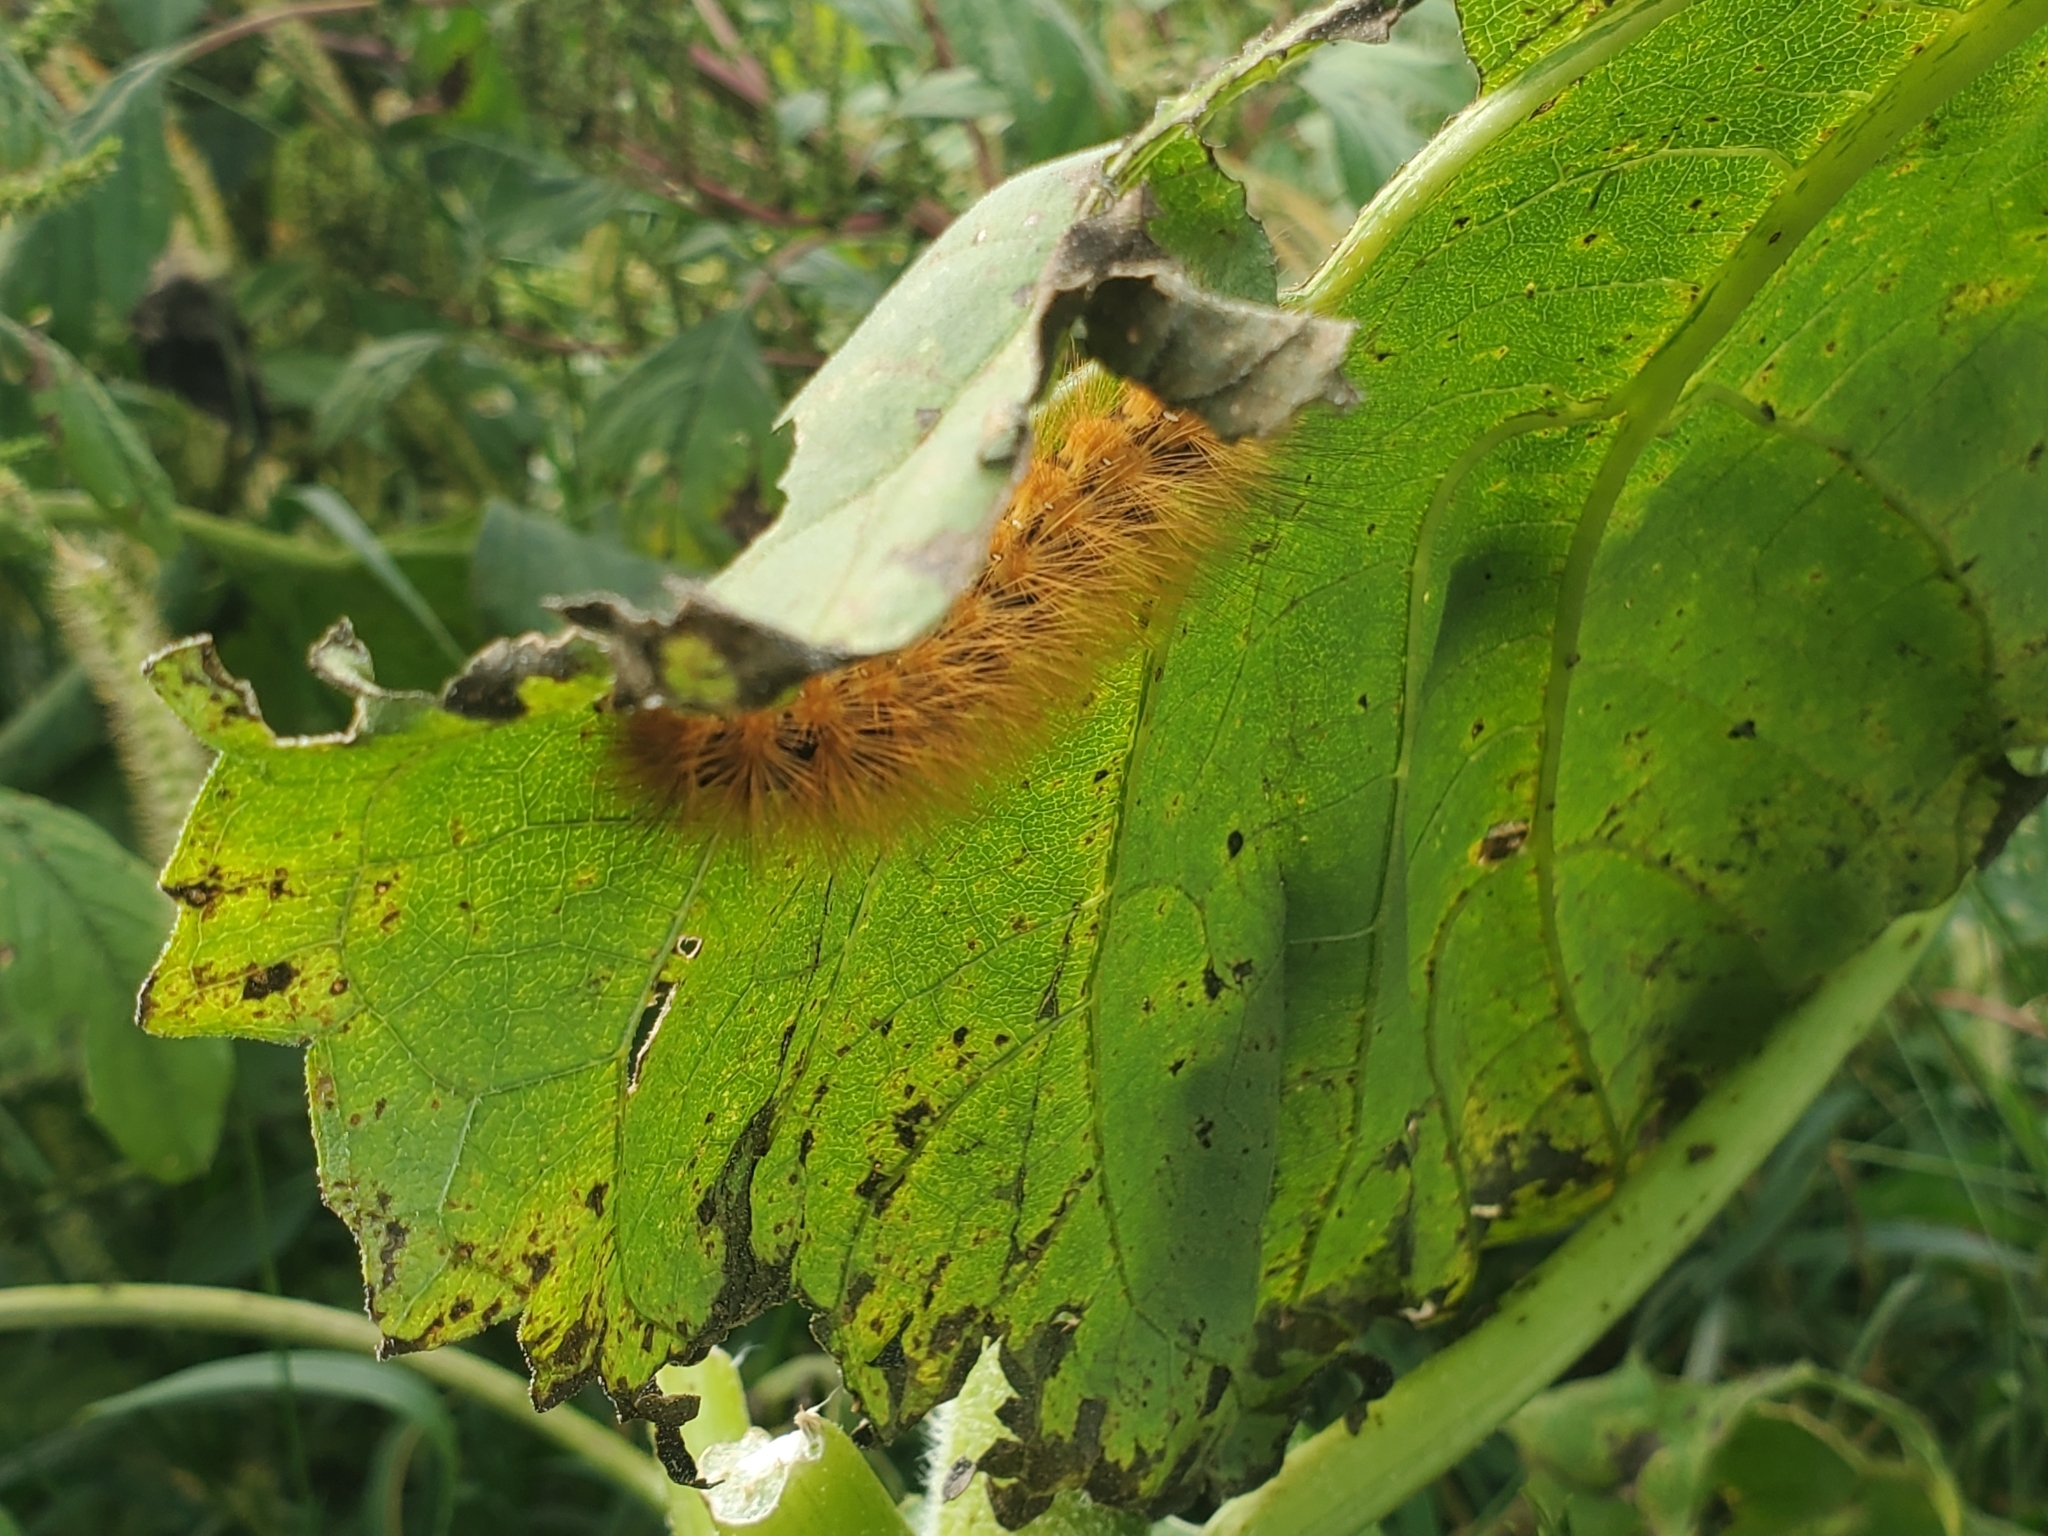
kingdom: Animalia
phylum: Arthropoda
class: Insecta
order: Lepidoptera
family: Erebidae
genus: Estigmene
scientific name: Estigmene acrea
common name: Salt marsh moth
